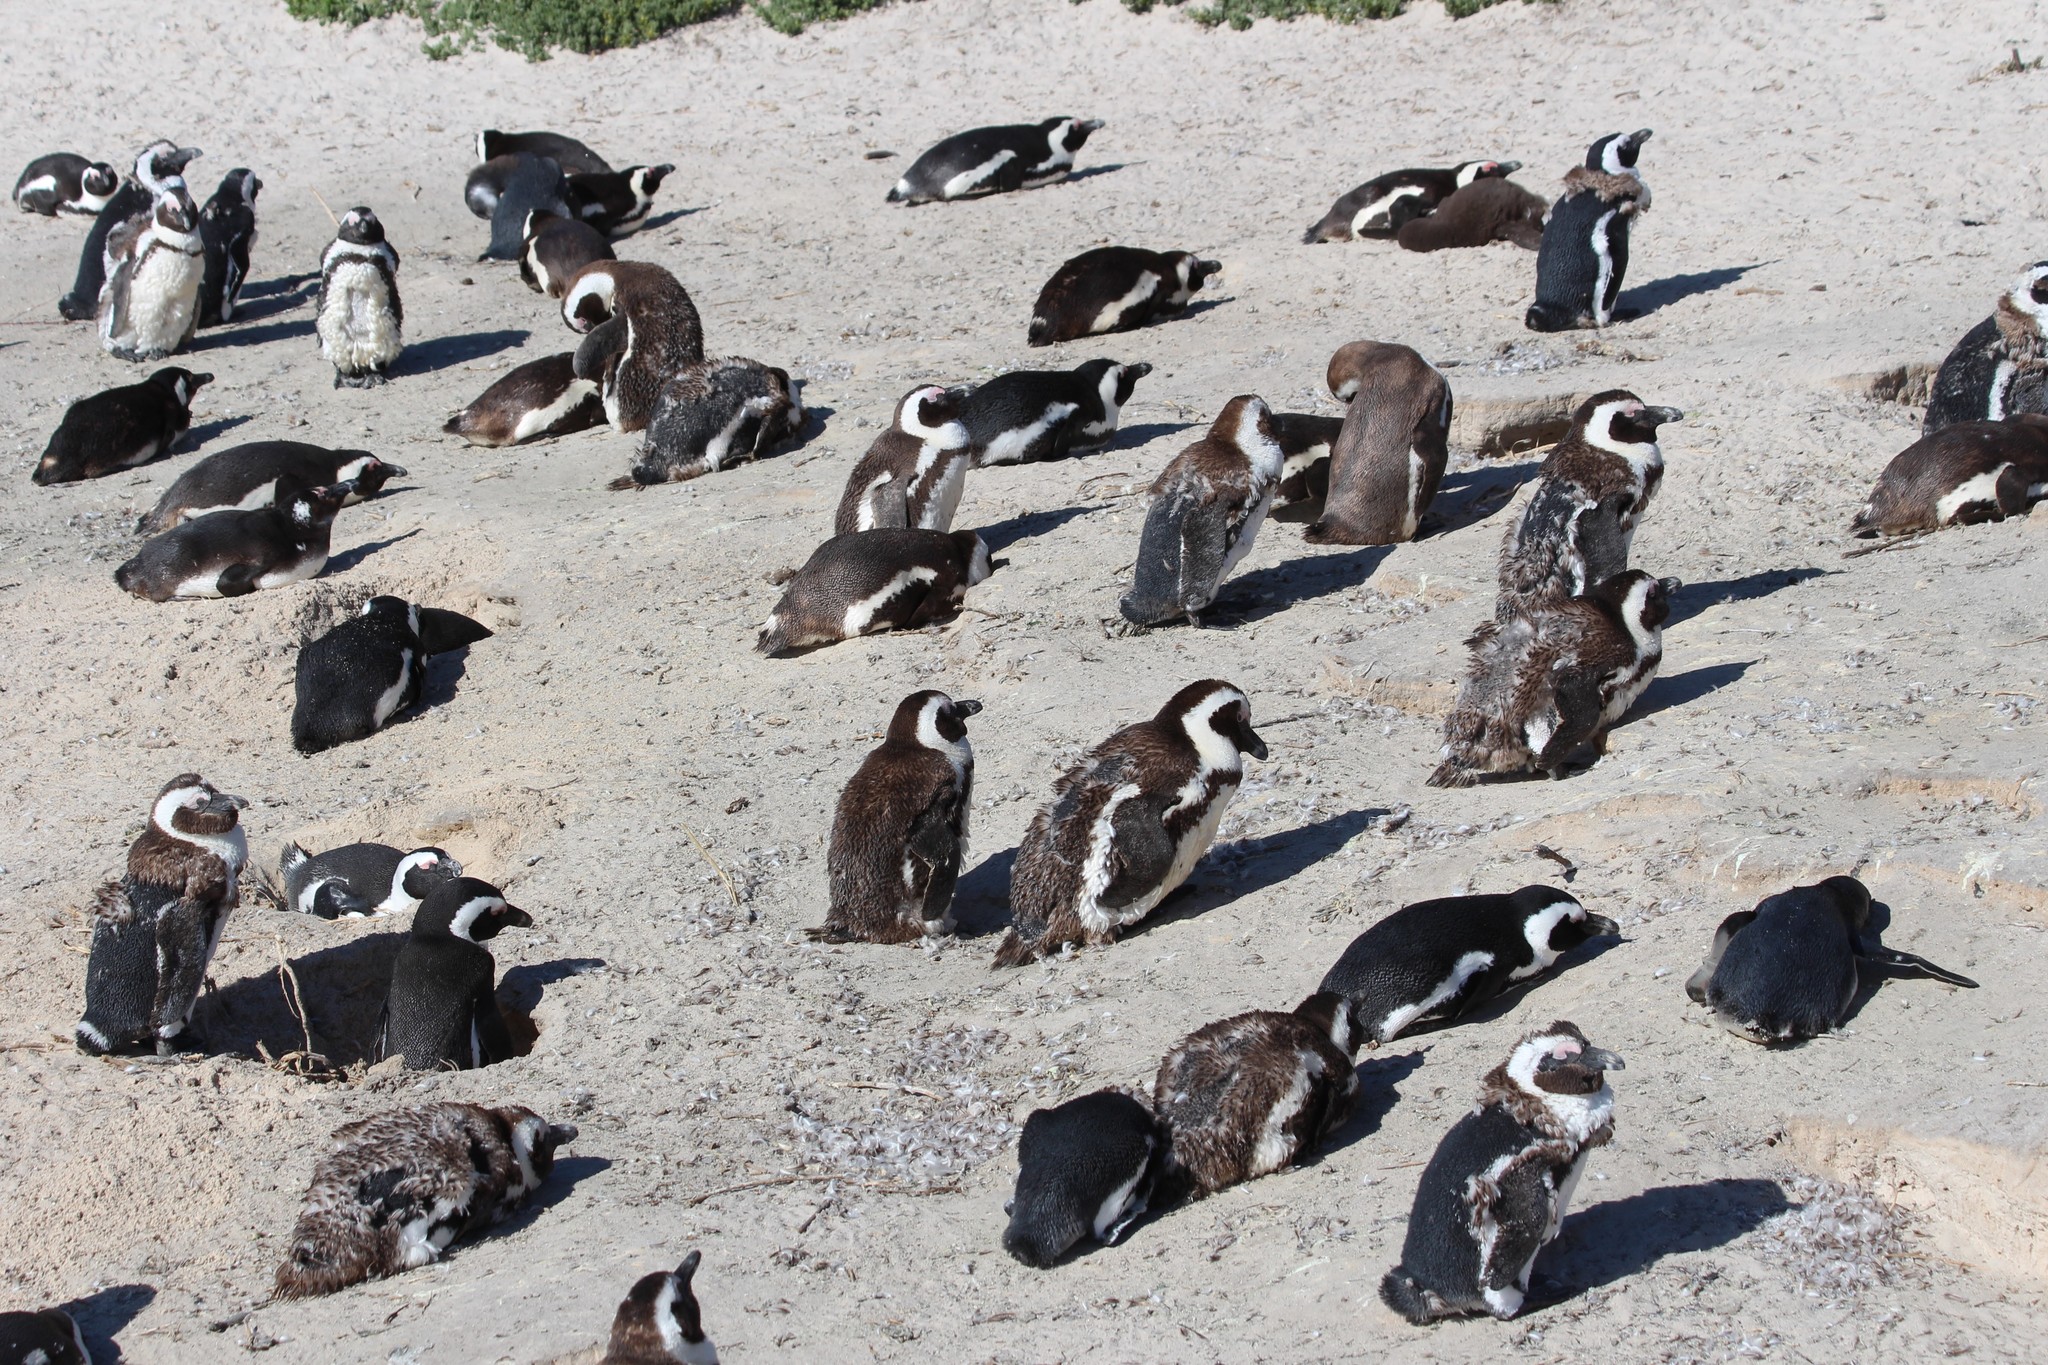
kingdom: Animalia
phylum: Chordata
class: Aves
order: Sphenisciformes
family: Spheniscidae
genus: Spheniscus
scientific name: Spheniscus demersus
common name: African penguin
